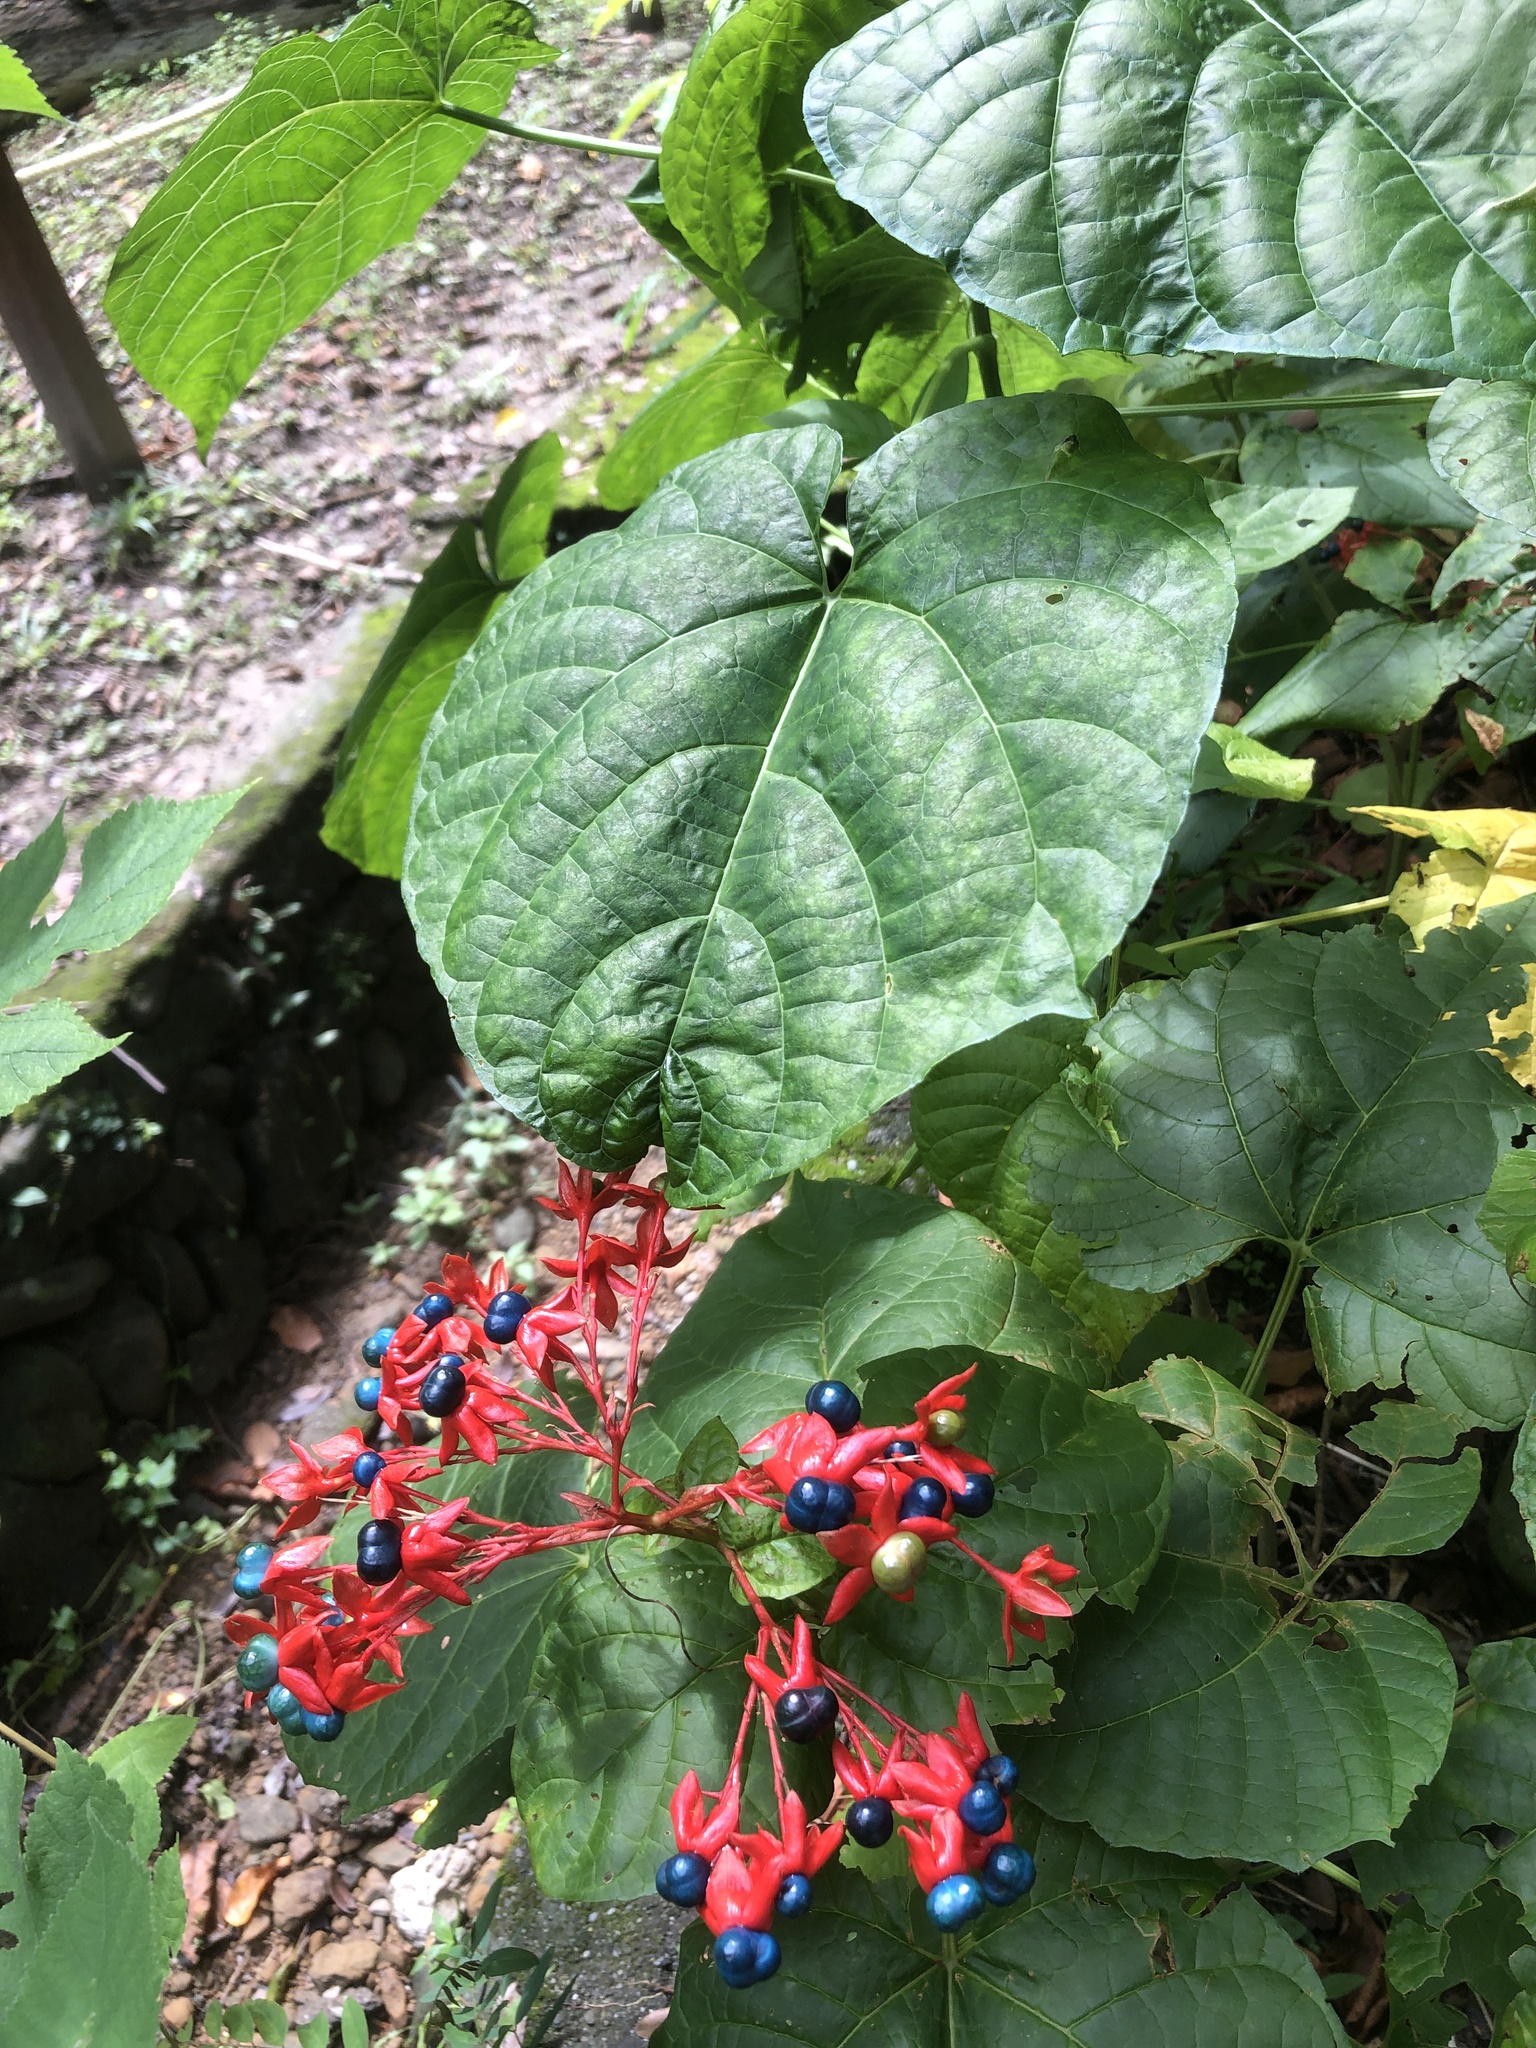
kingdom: Plantae
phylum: Tracheophyta
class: Magnoliopsida
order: Lamiales
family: Lamiaceae
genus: Clerodendrum
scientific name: Clerodendrum japonicum
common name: Japanese glorybower
